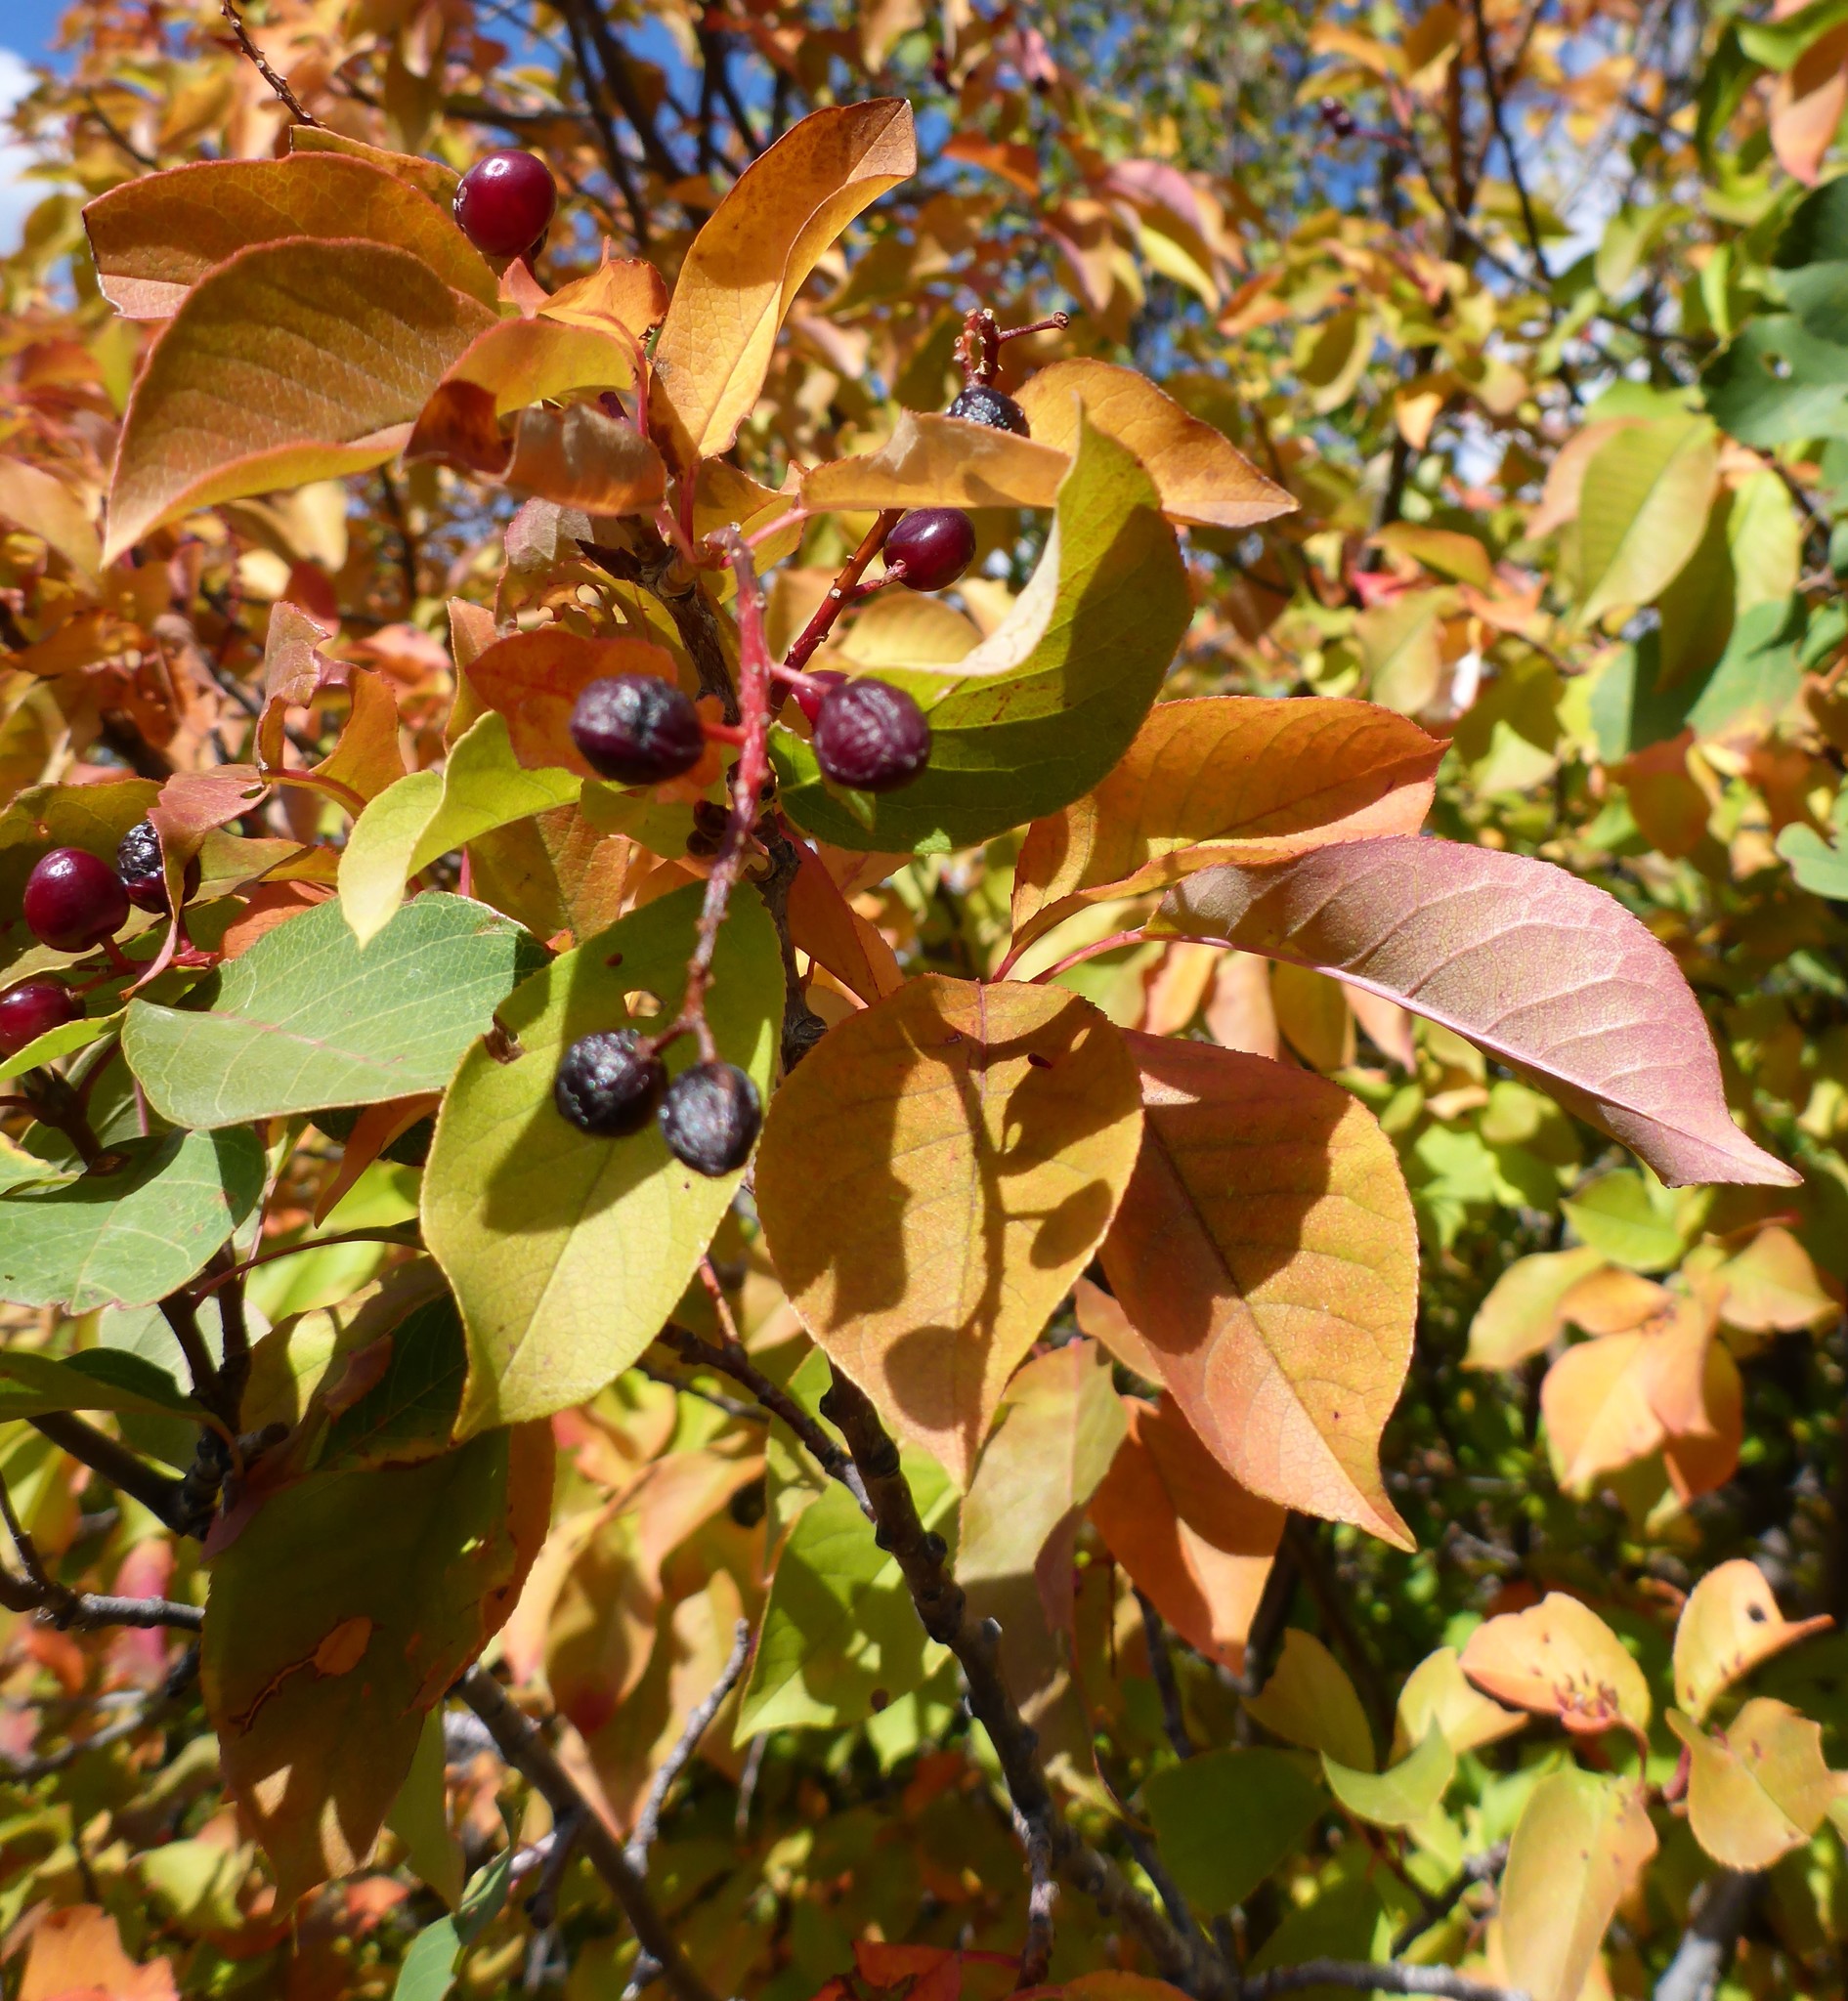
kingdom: Plantae
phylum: Tracheophyta
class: Magnoliopsida
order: Rosales
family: Rosaceae
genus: Prunus
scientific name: Prunus virginiana
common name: Chokecherry
